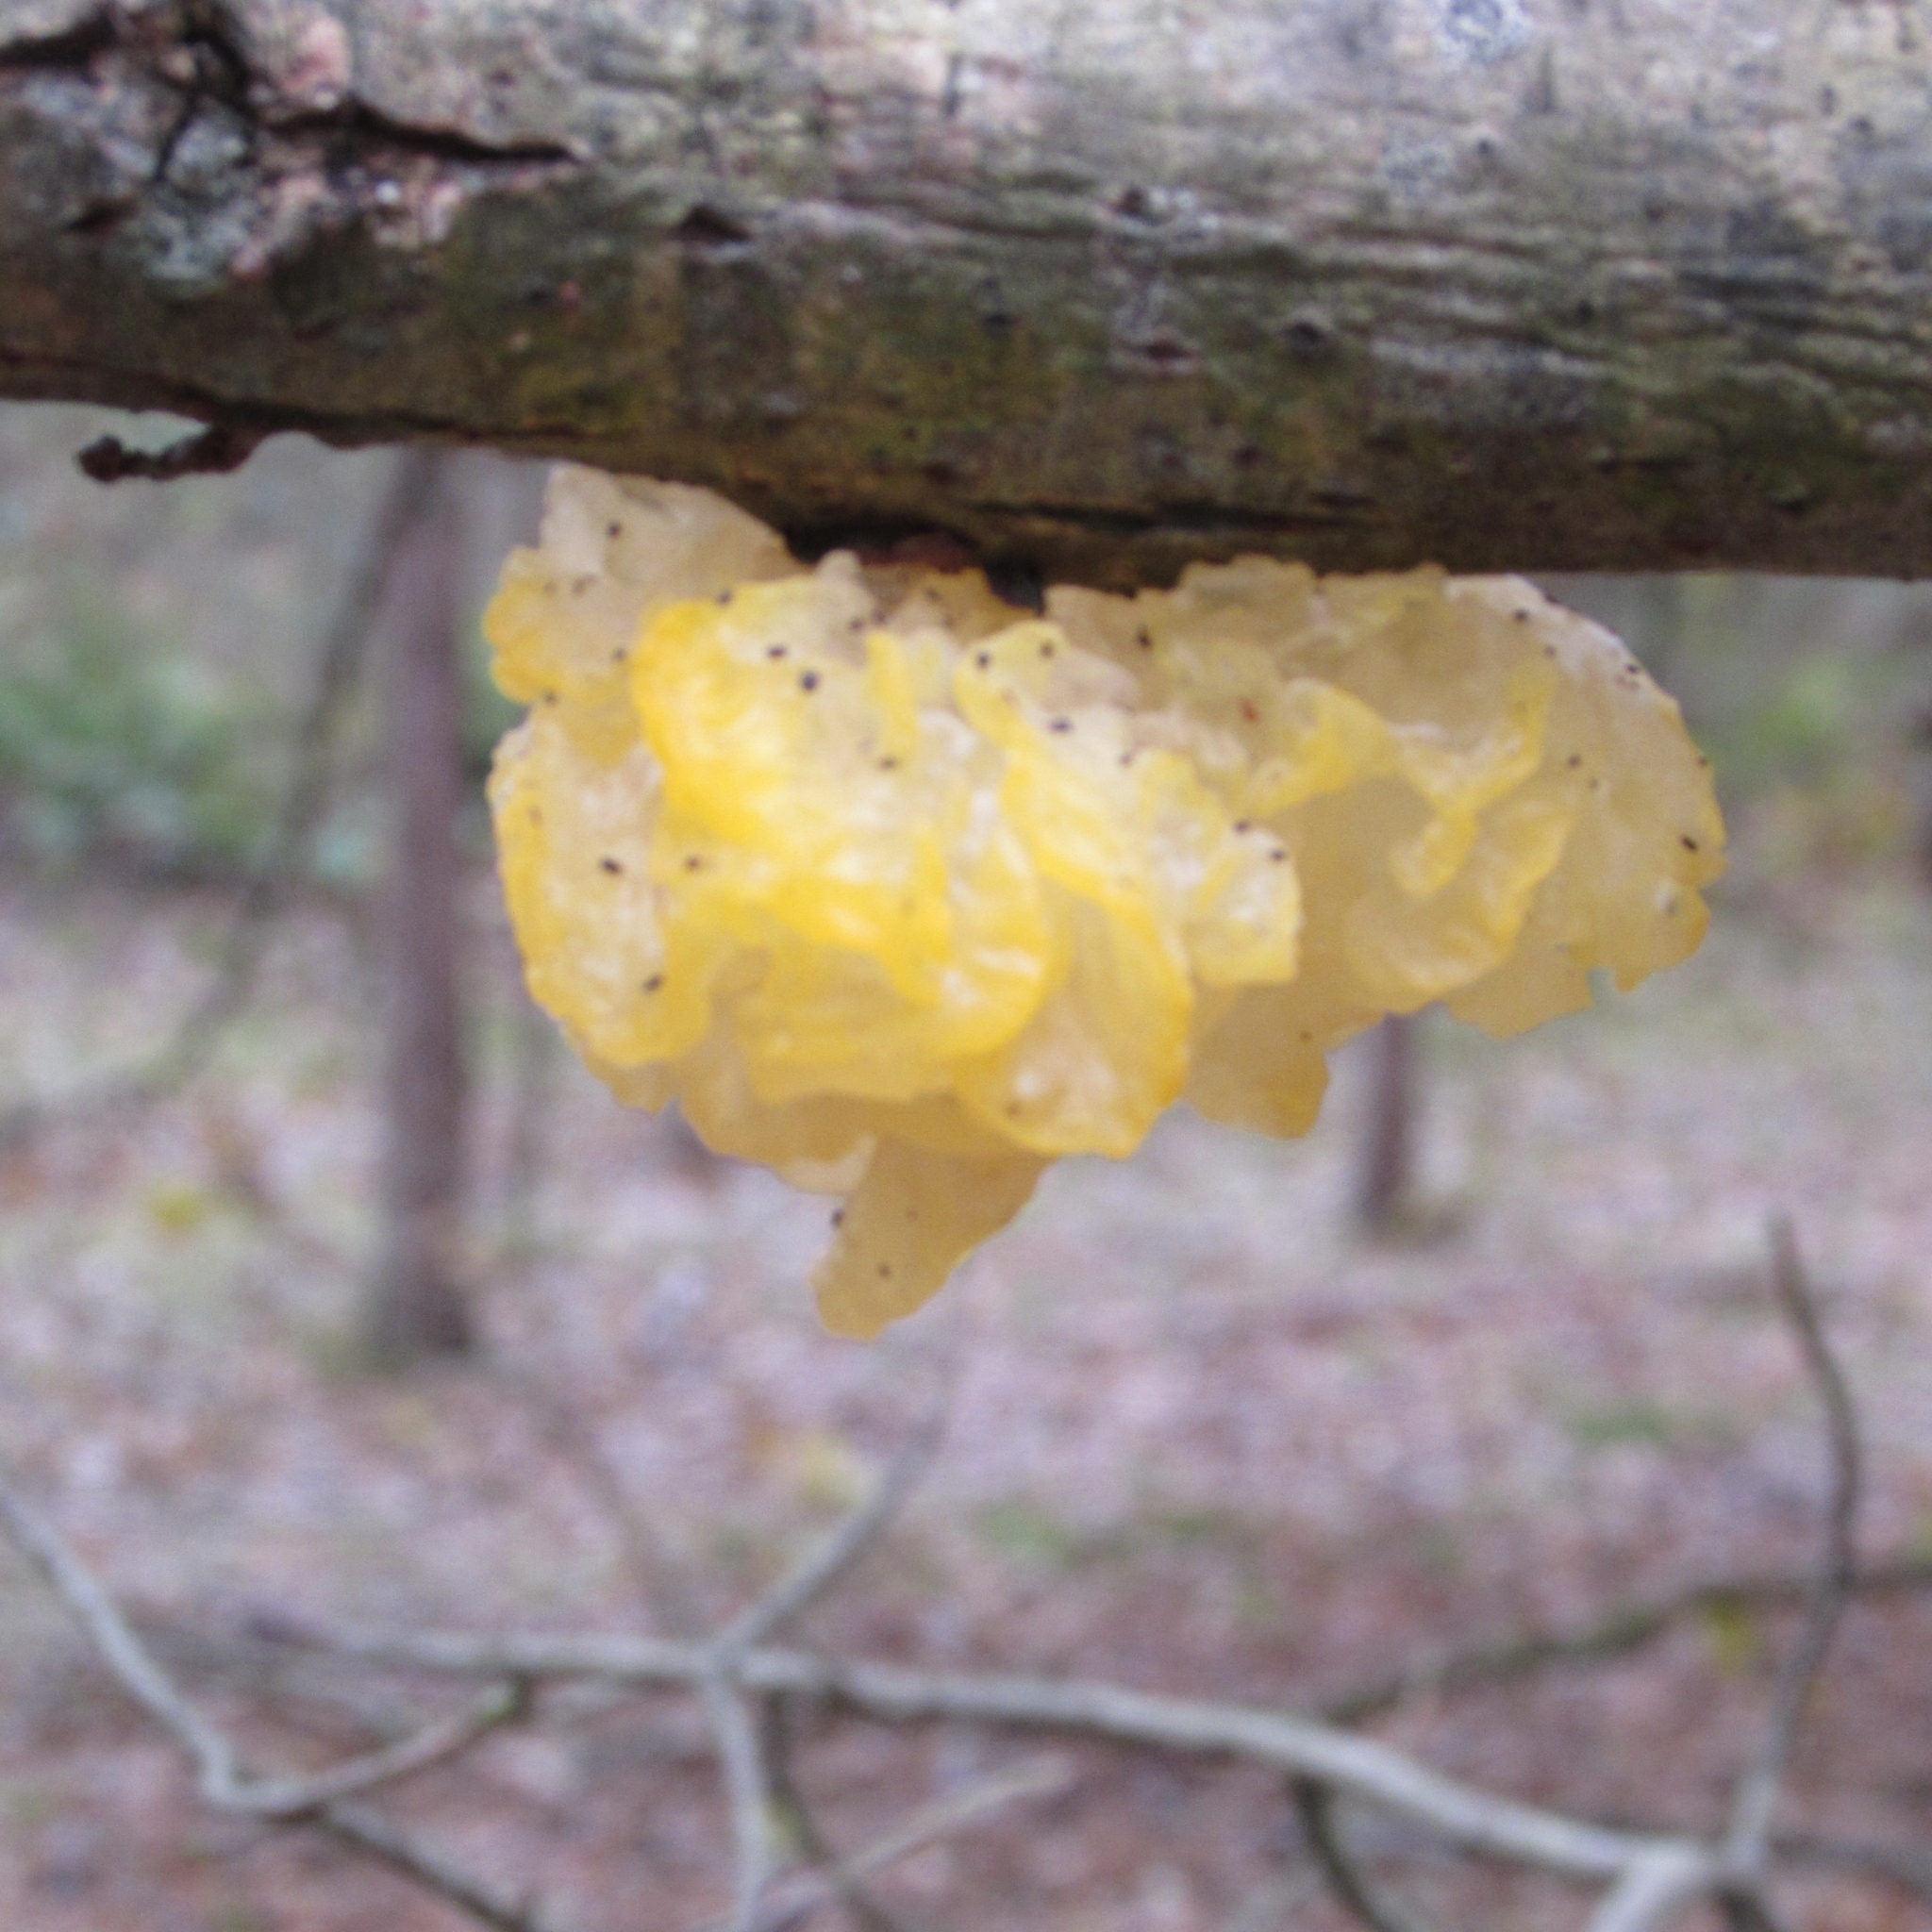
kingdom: Fungi
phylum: Basidiomycota
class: Tremellomycetes
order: Tremellales
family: Tremellaceae
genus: Tremella
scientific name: Tremella mesenterica
